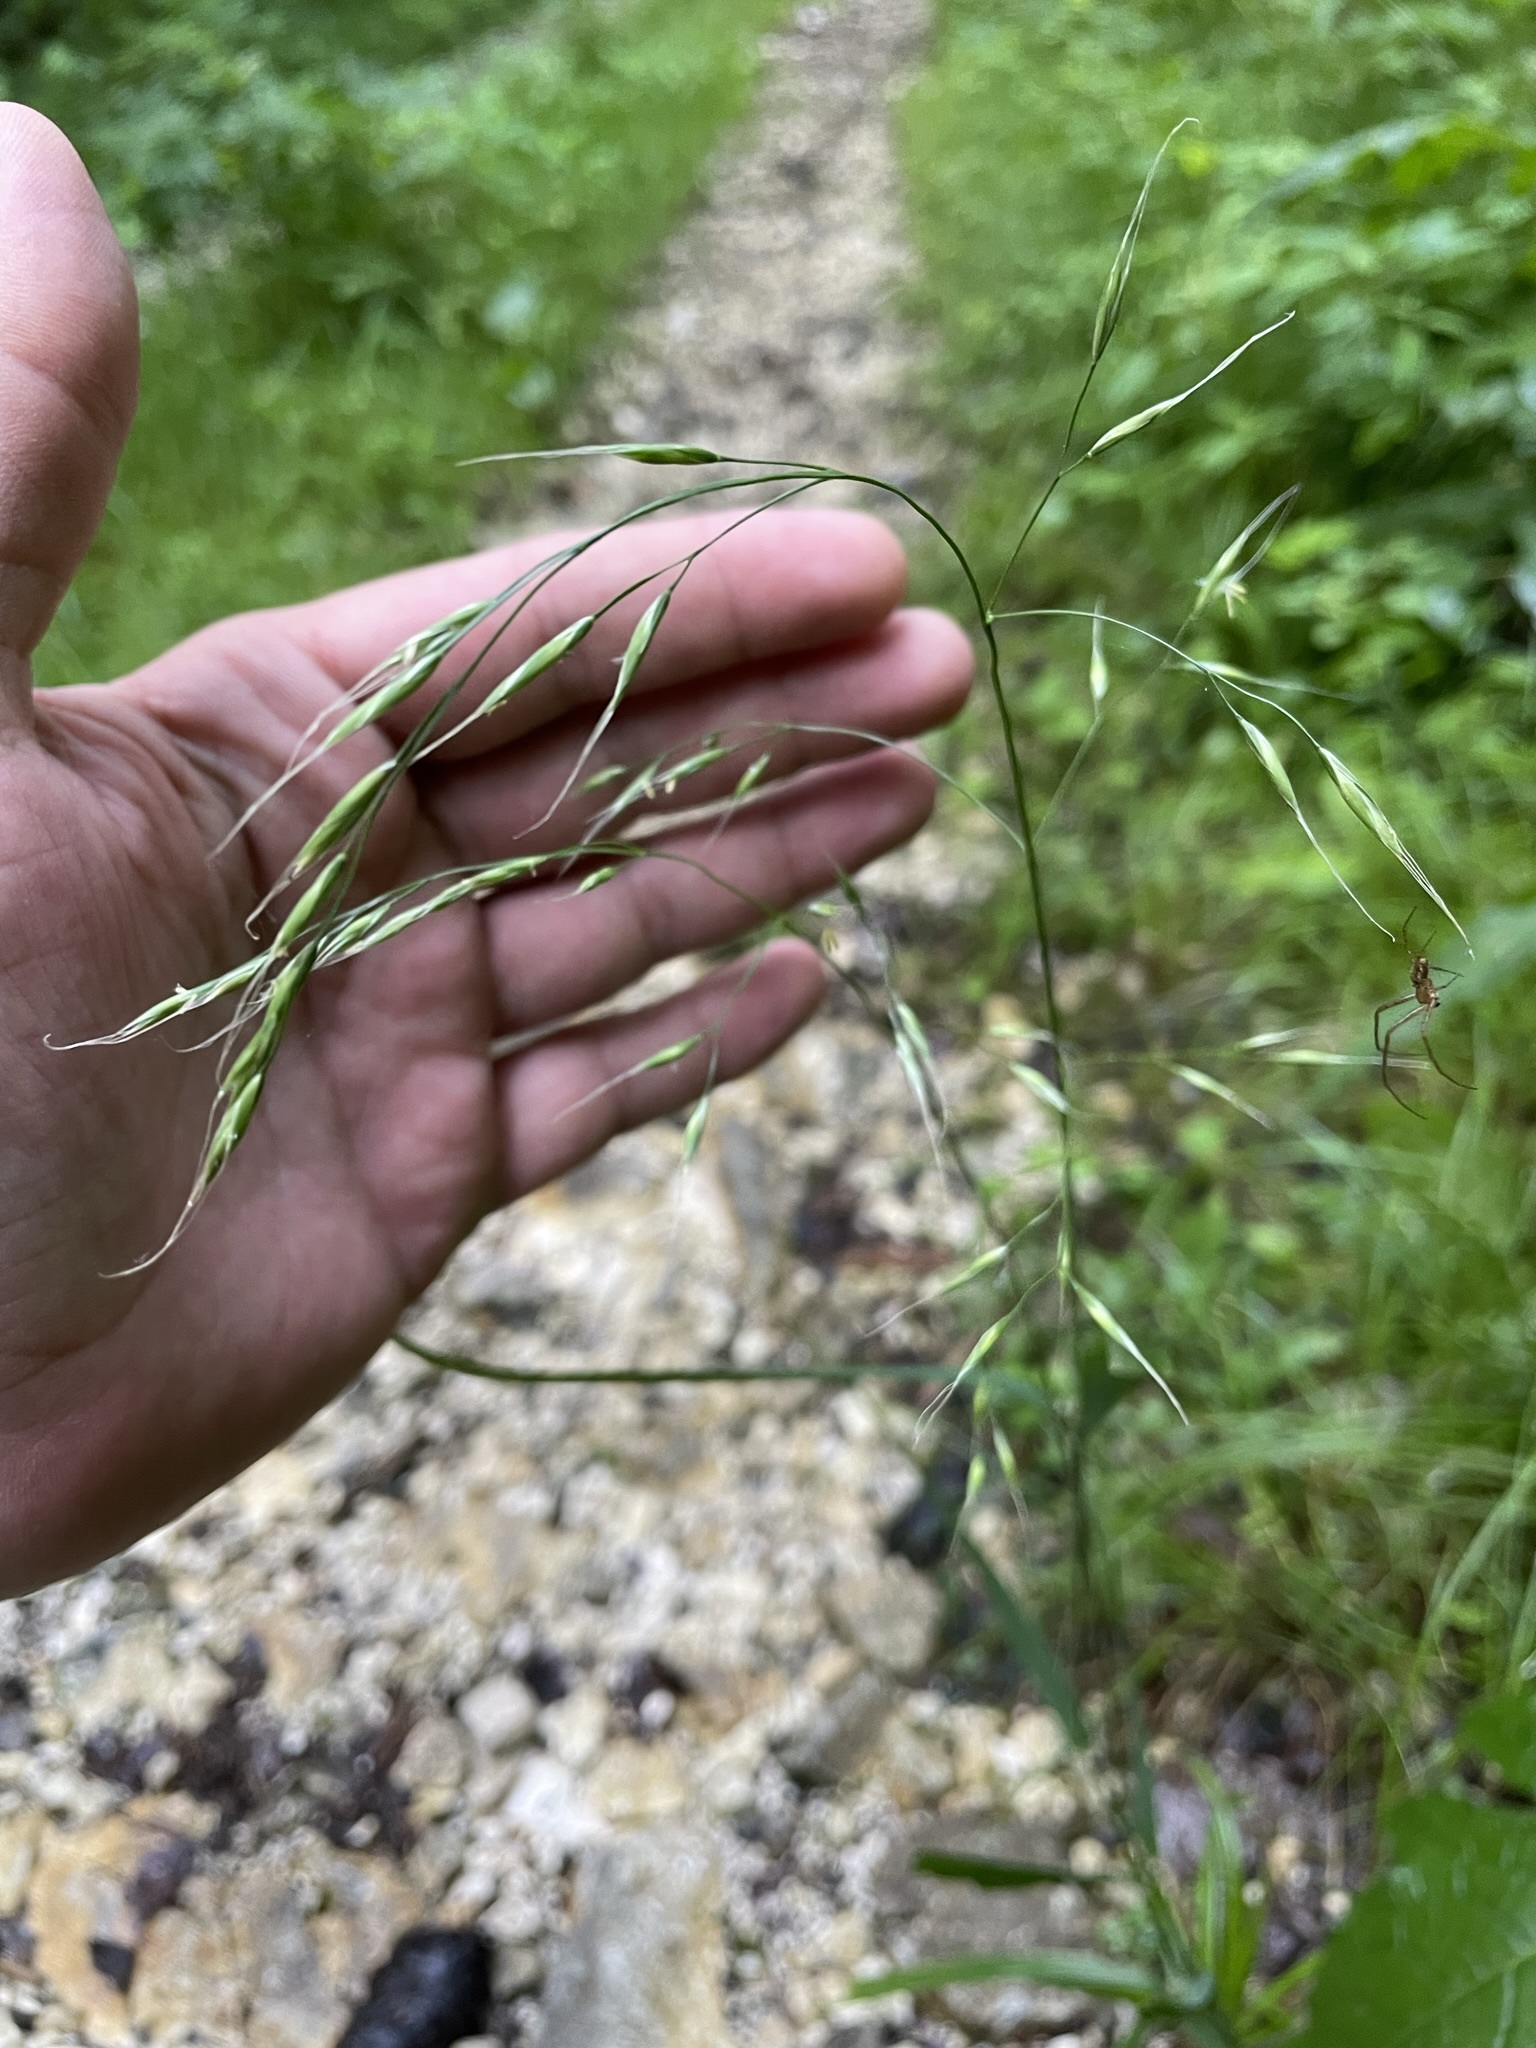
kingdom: Plantae
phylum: Tracheophyta
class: Liliopsida
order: Poales
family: Poaceae
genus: Lolium
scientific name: Lolium giganteum
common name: Giant fescue
